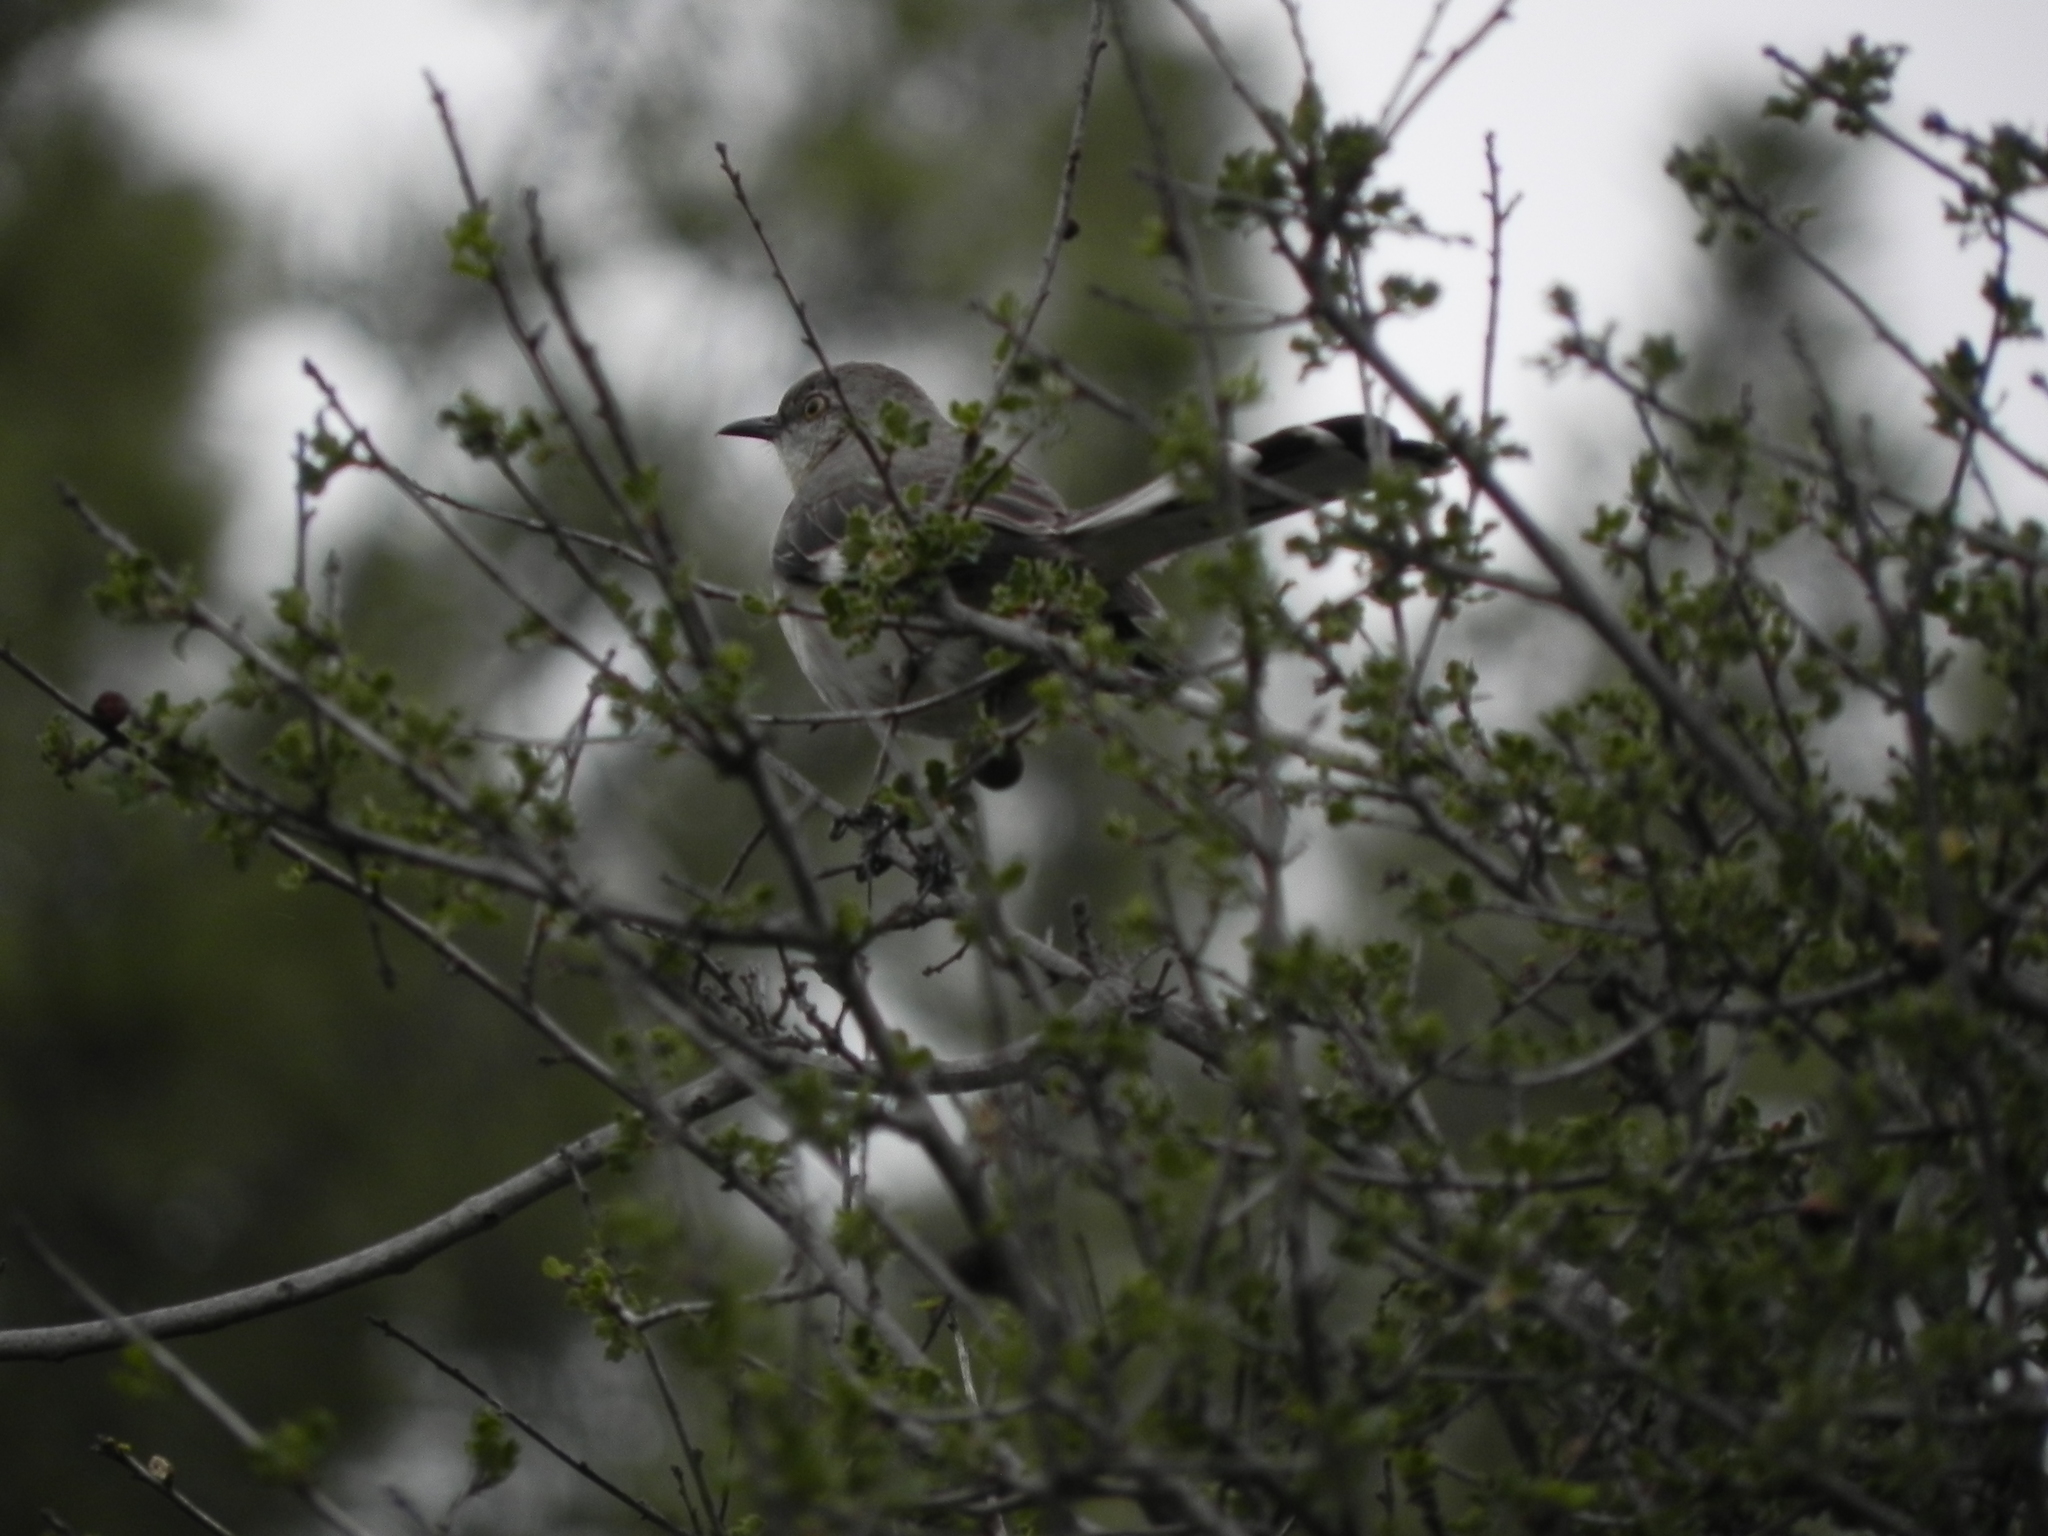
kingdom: Animalia
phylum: Chordata
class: Aves
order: Passeriformes
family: Mimidae
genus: Mimus
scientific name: Mimus polyglottos
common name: Northern mockingbird
